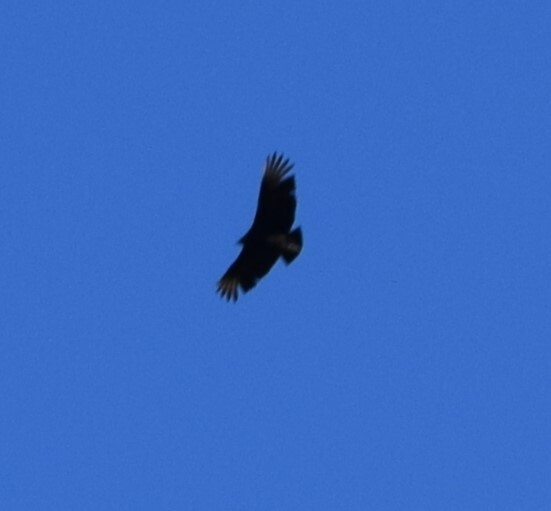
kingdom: Animalia
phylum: Chordata
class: Aves
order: Accipitriformes
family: Cathartidae
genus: Coragyps
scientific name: Coragyps atratus
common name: Black vulture
